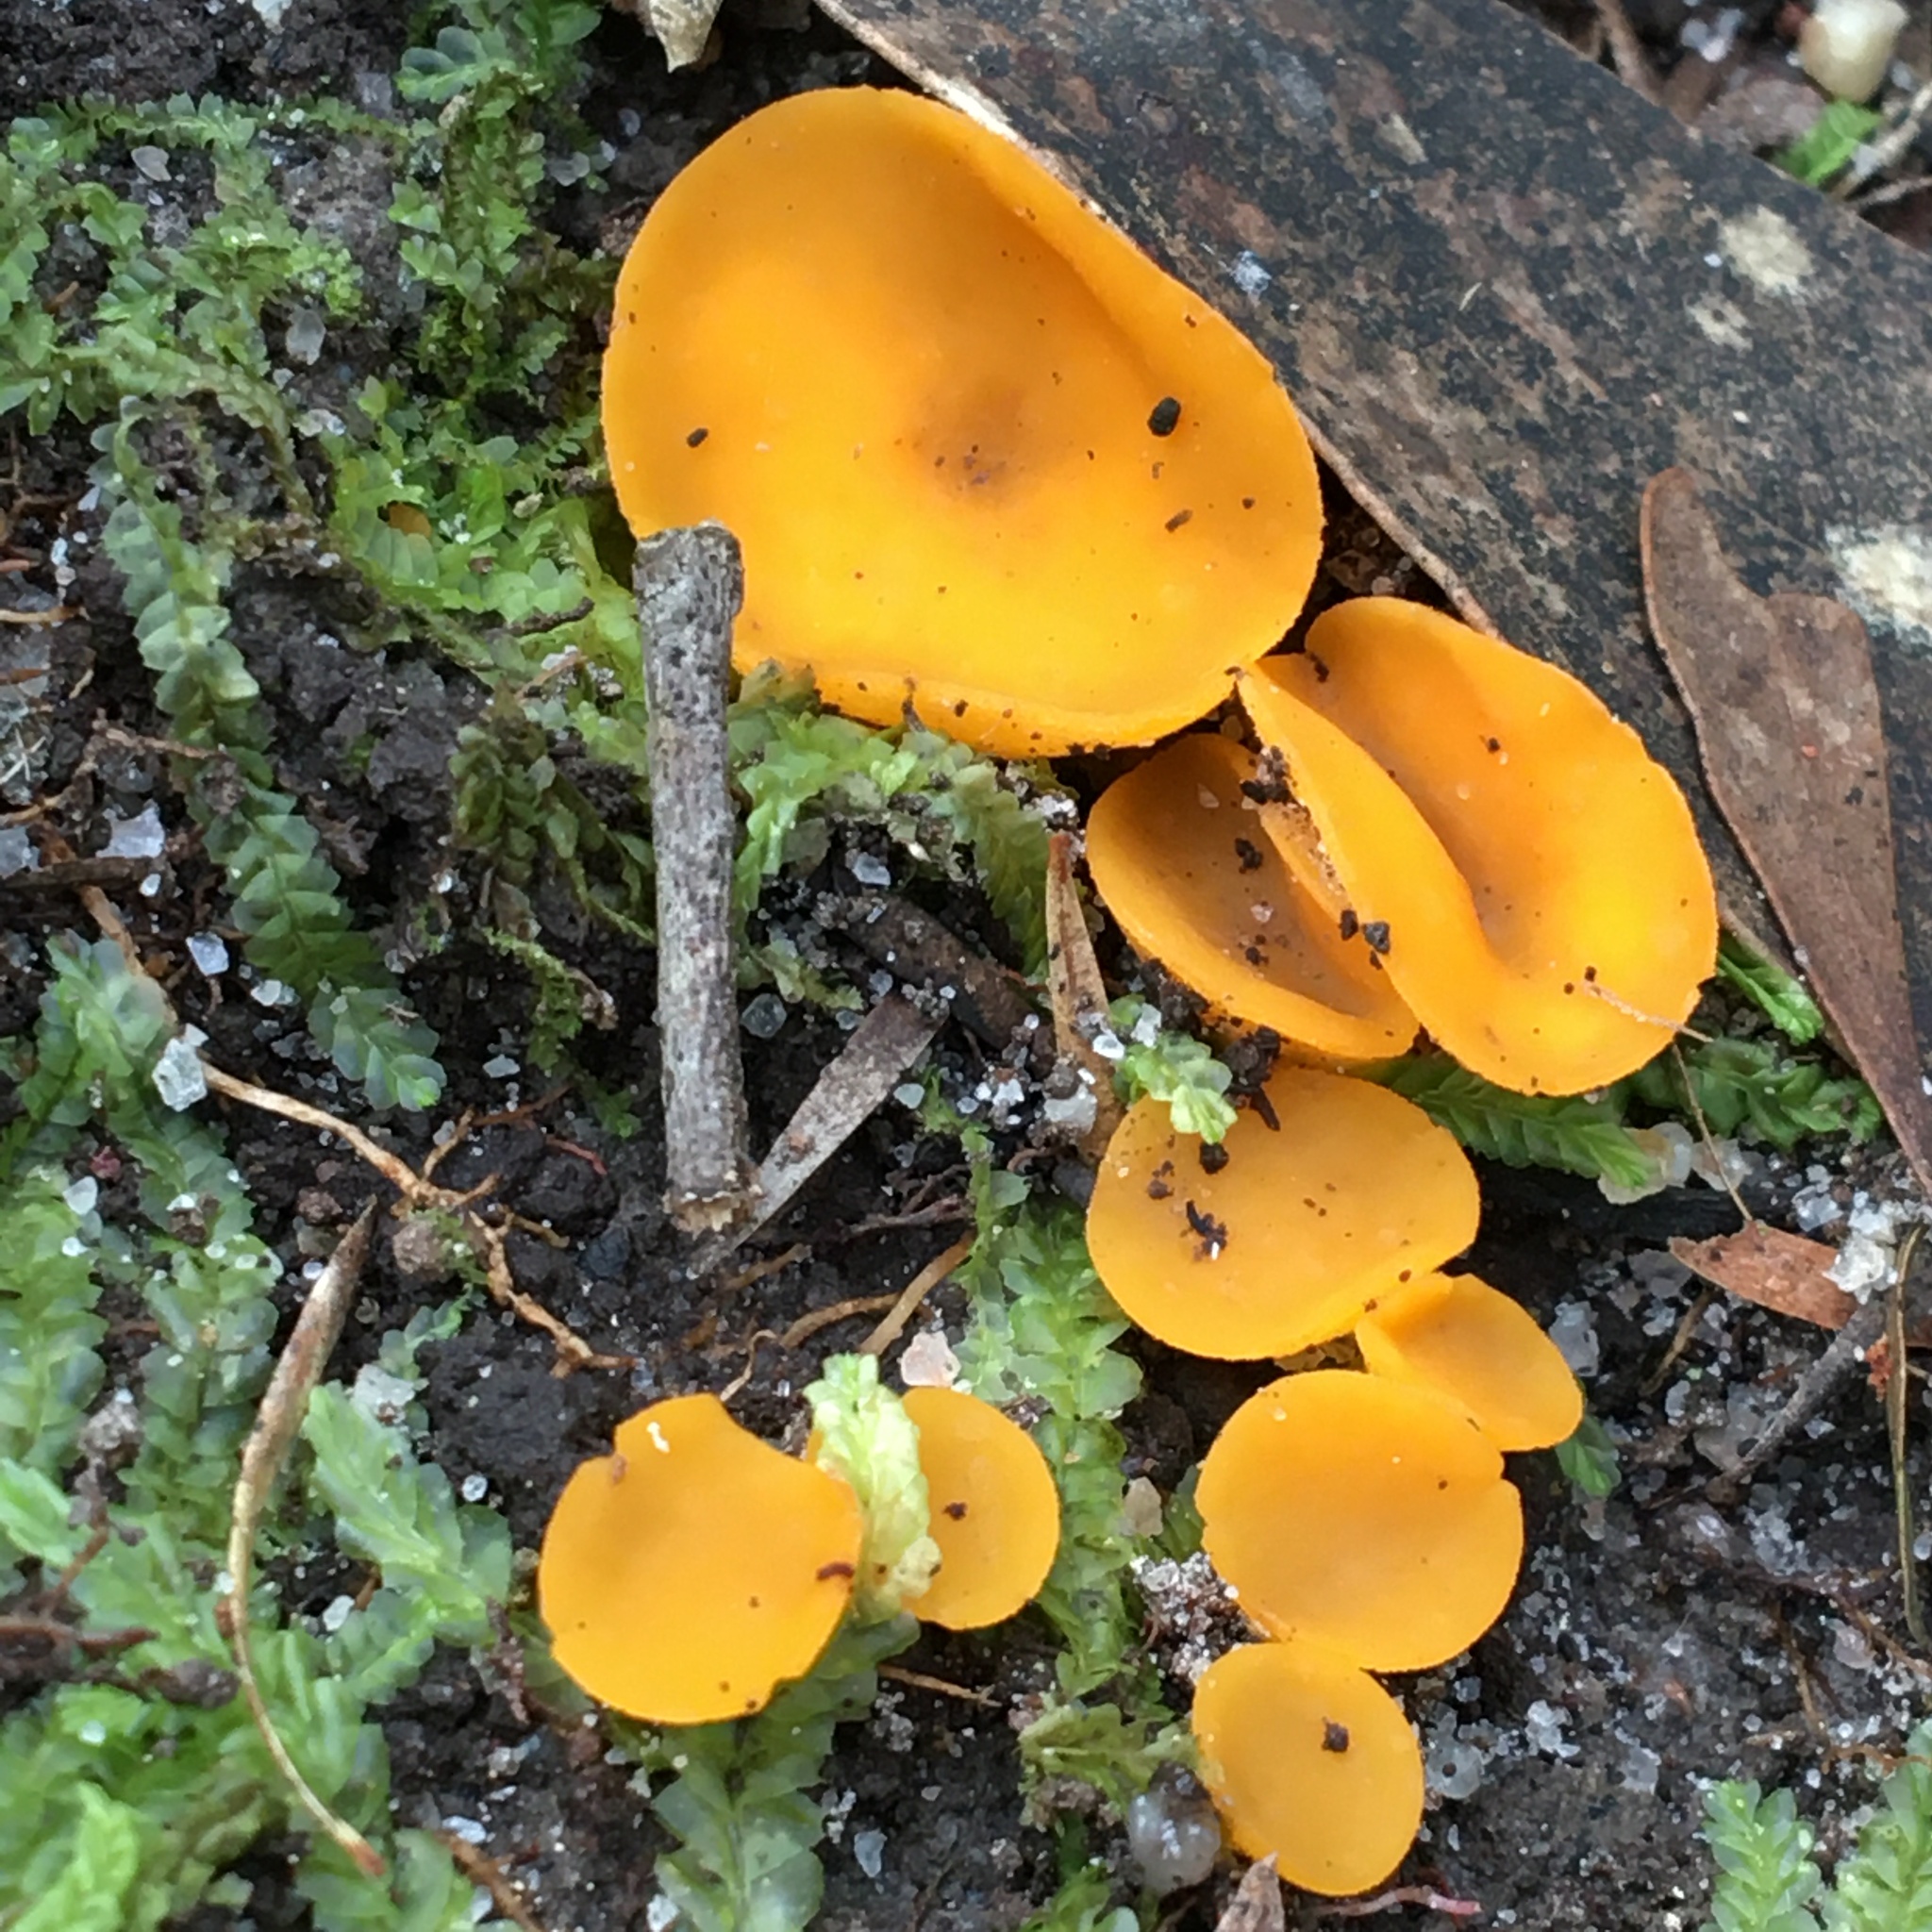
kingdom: Fungi
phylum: Ascomycota
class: Leotiomycetes
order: Helotiales
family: Helotiaceae
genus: Phaeohelotium
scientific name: Phaeohelotium baileyanum
